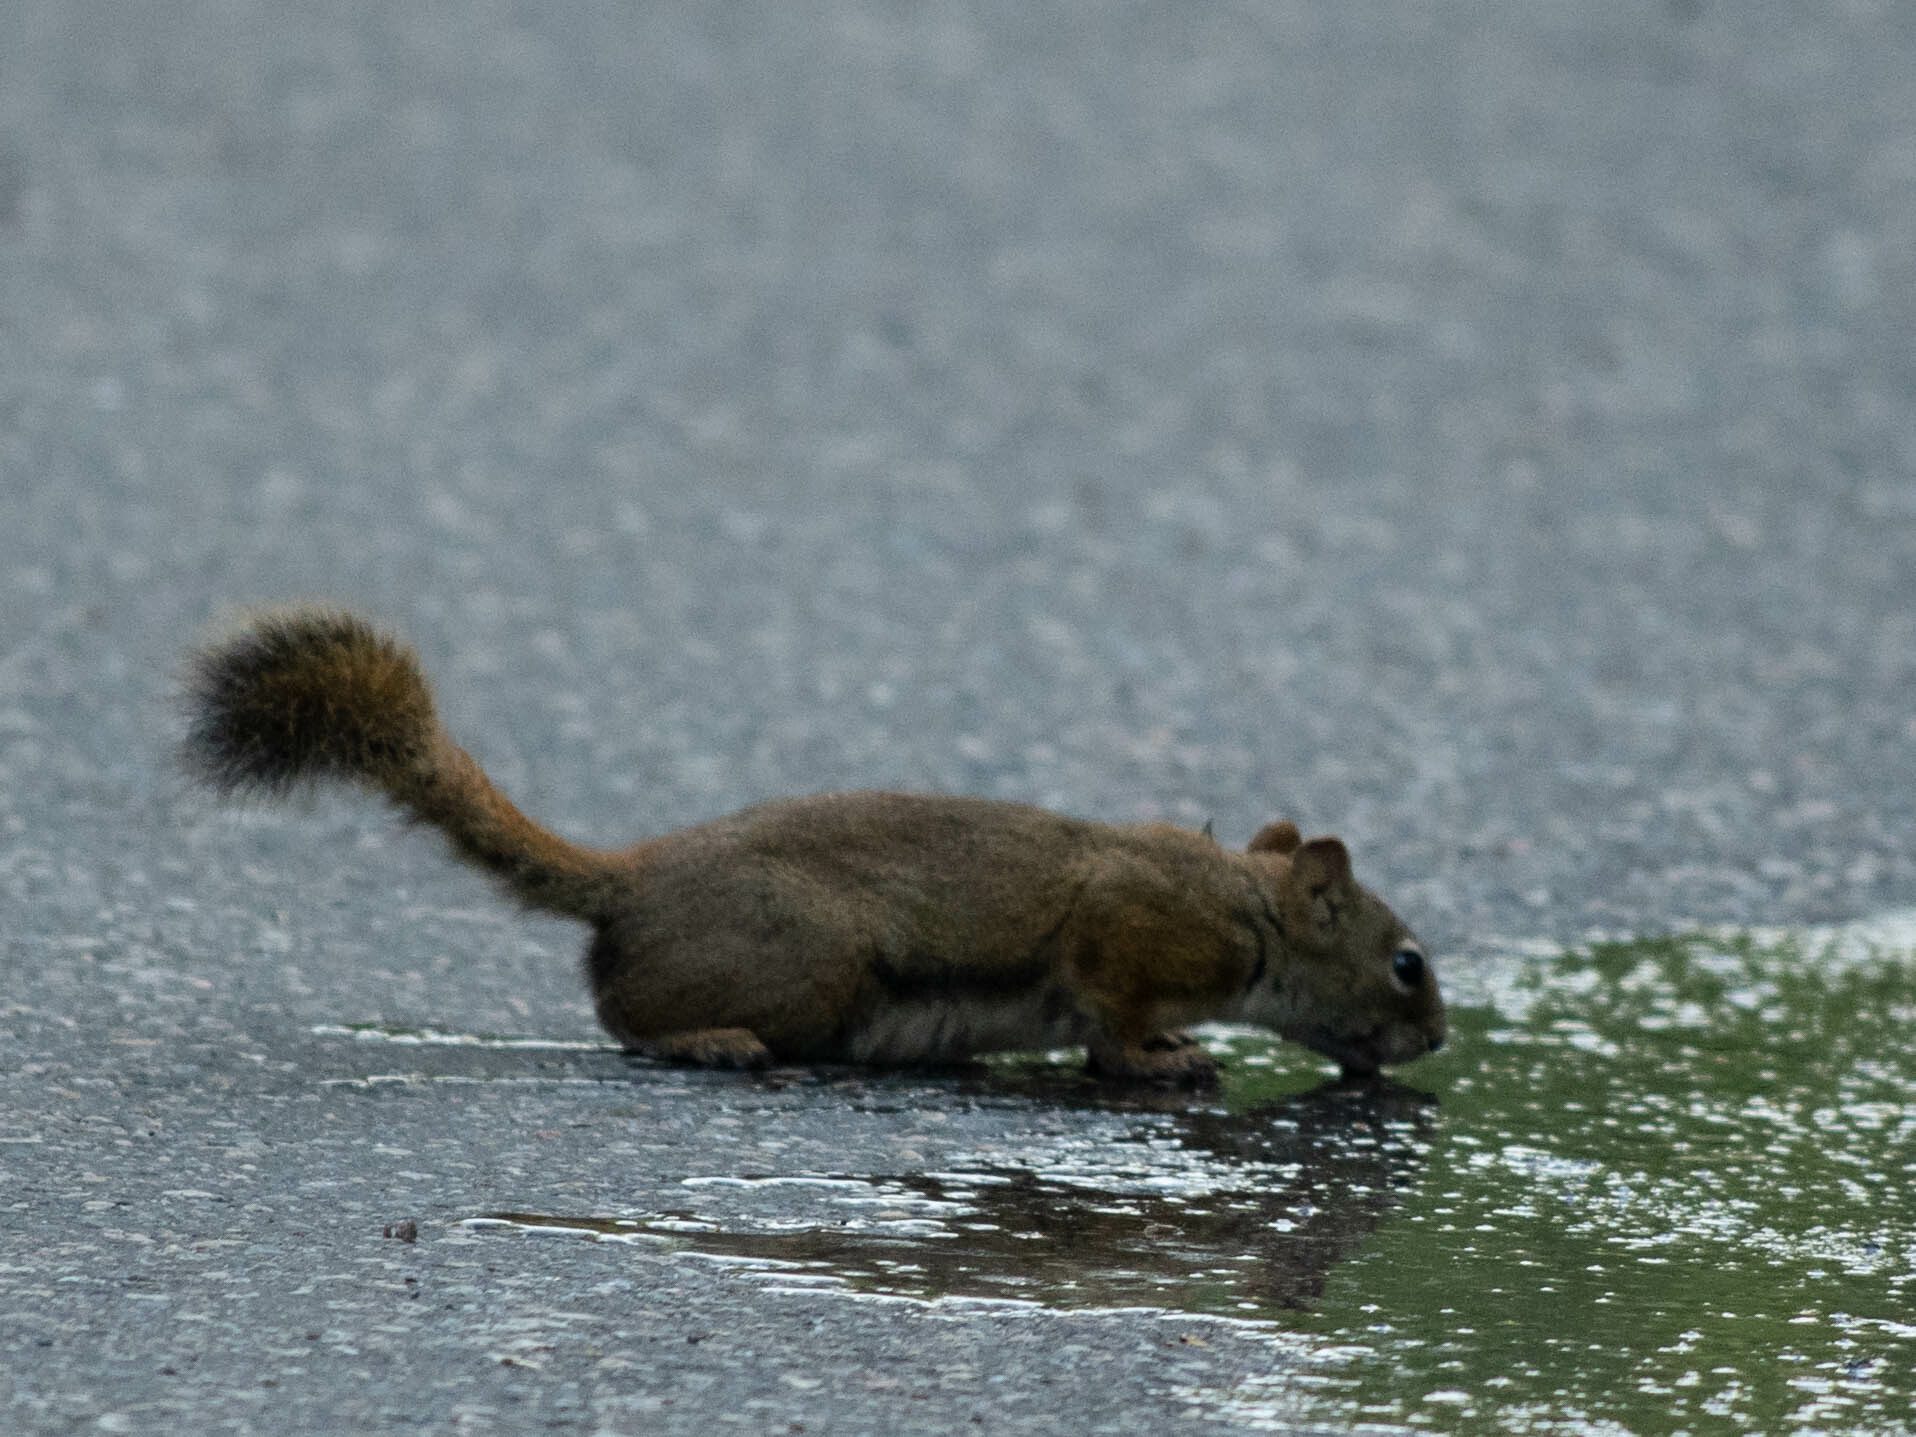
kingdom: Animalia
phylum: Chordata
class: Mammalia
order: Rodentia
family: Sciuridae
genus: Tamiasciurus
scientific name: Tamiasciurus hudsonicus
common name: Red squirrel
